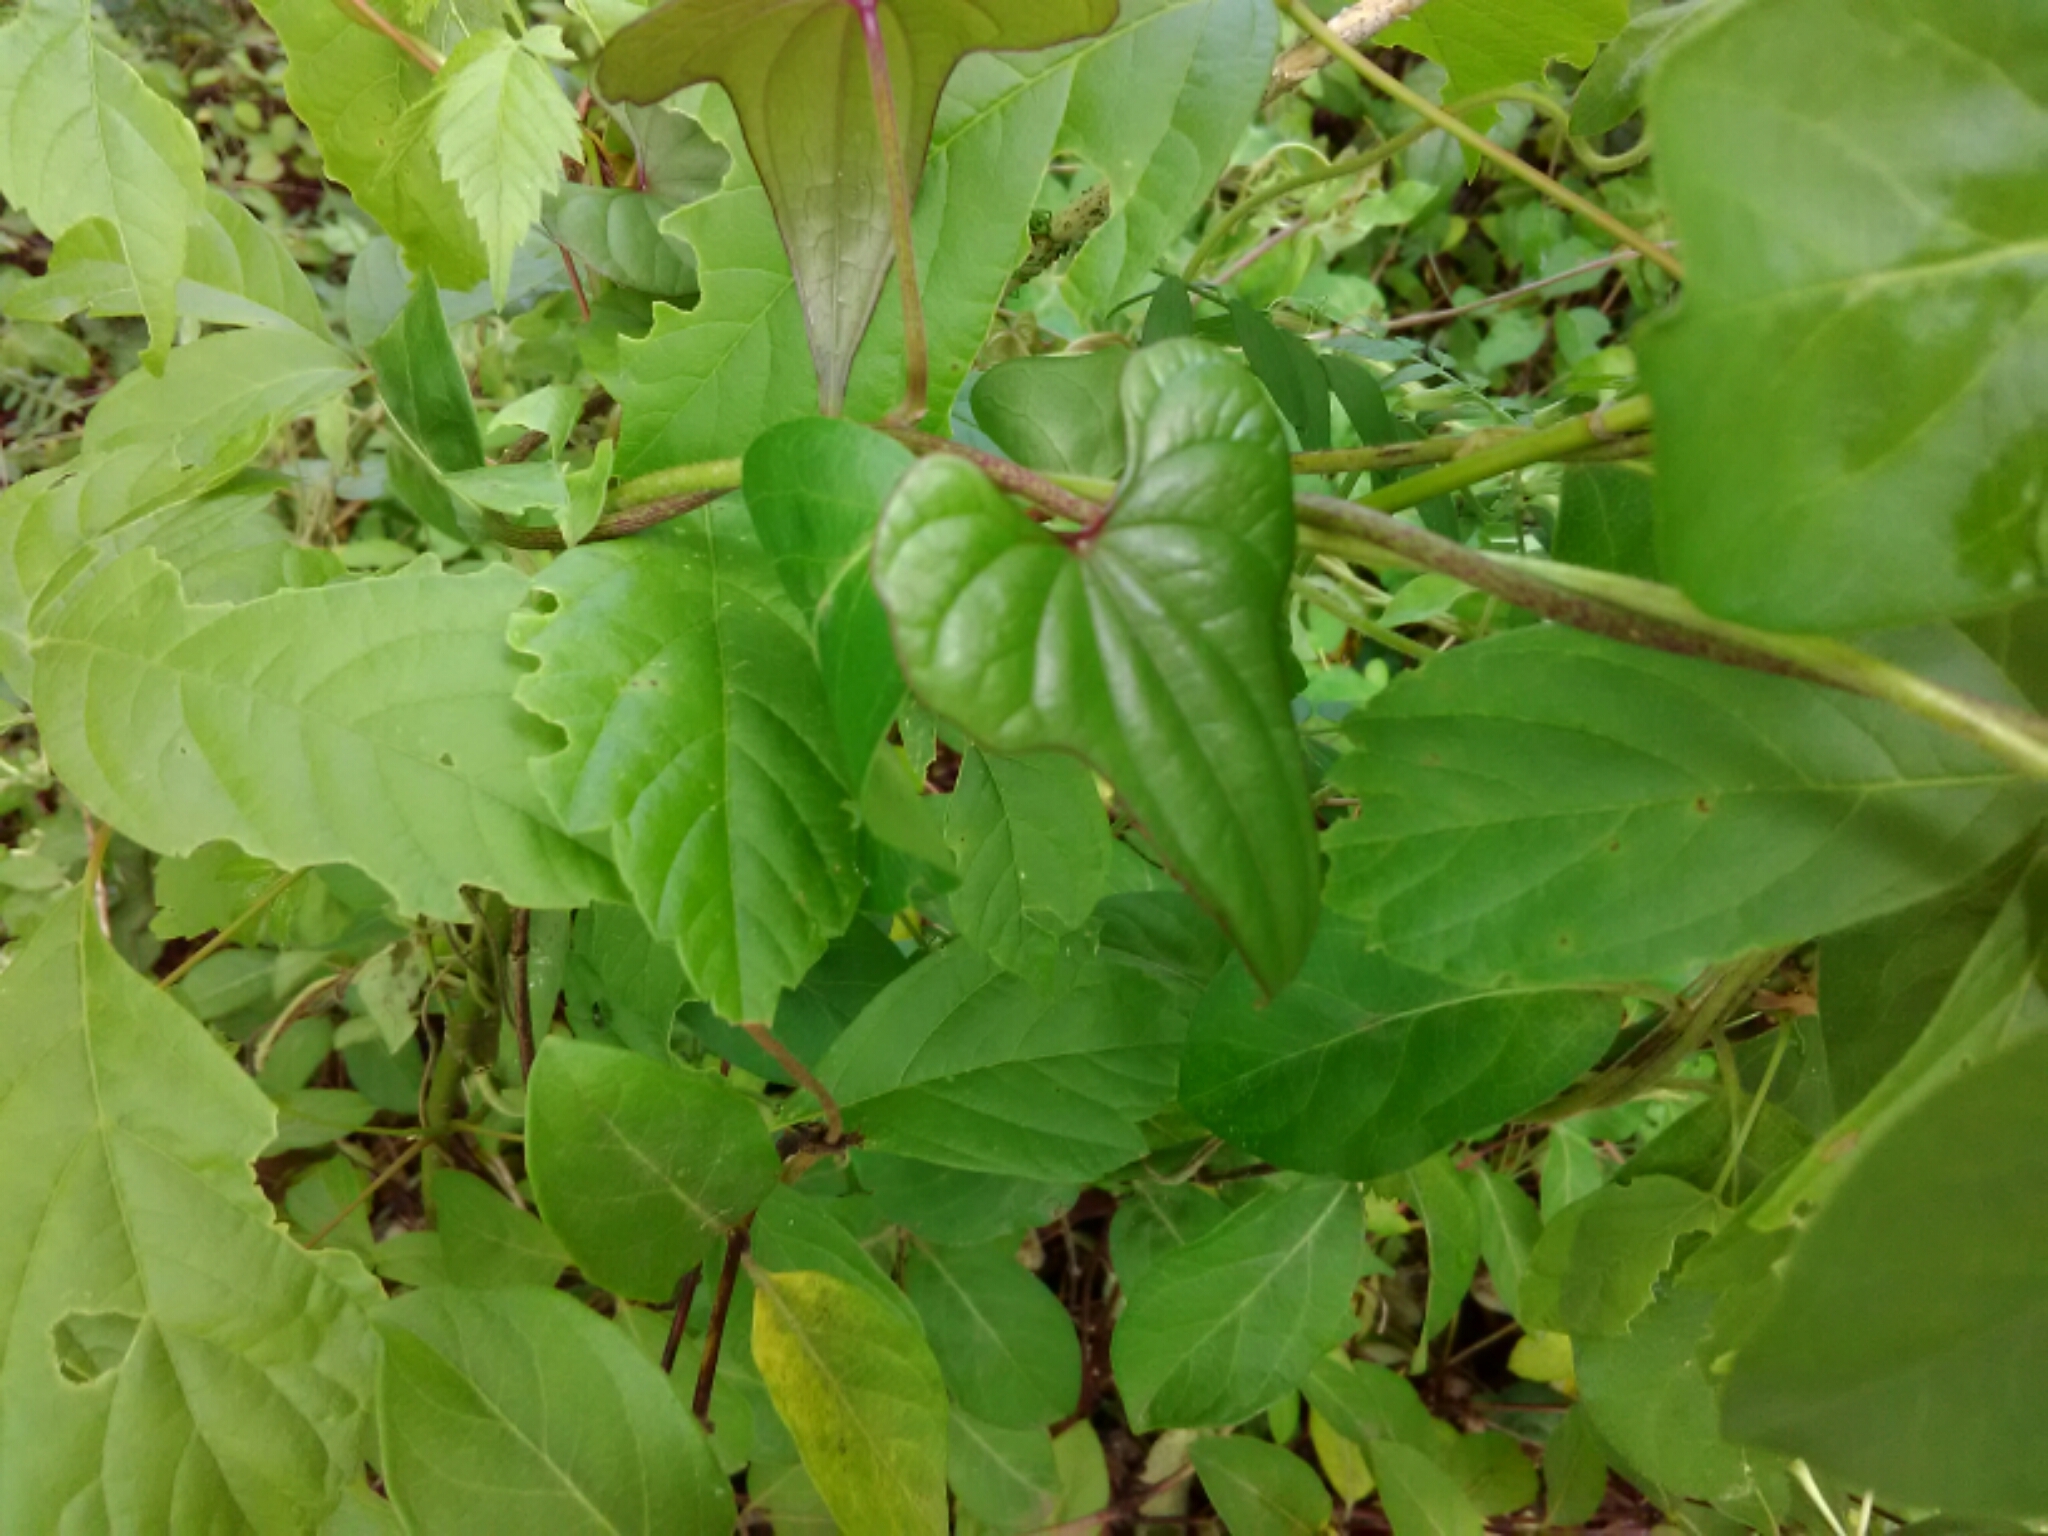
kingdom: Plantae
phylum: Tracheophyta
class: Liliopsida
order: Dioscoreales
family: Dioscoreaceae
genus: Dioscorea
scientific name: Dioscorea polystachya
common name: Chinese yam
